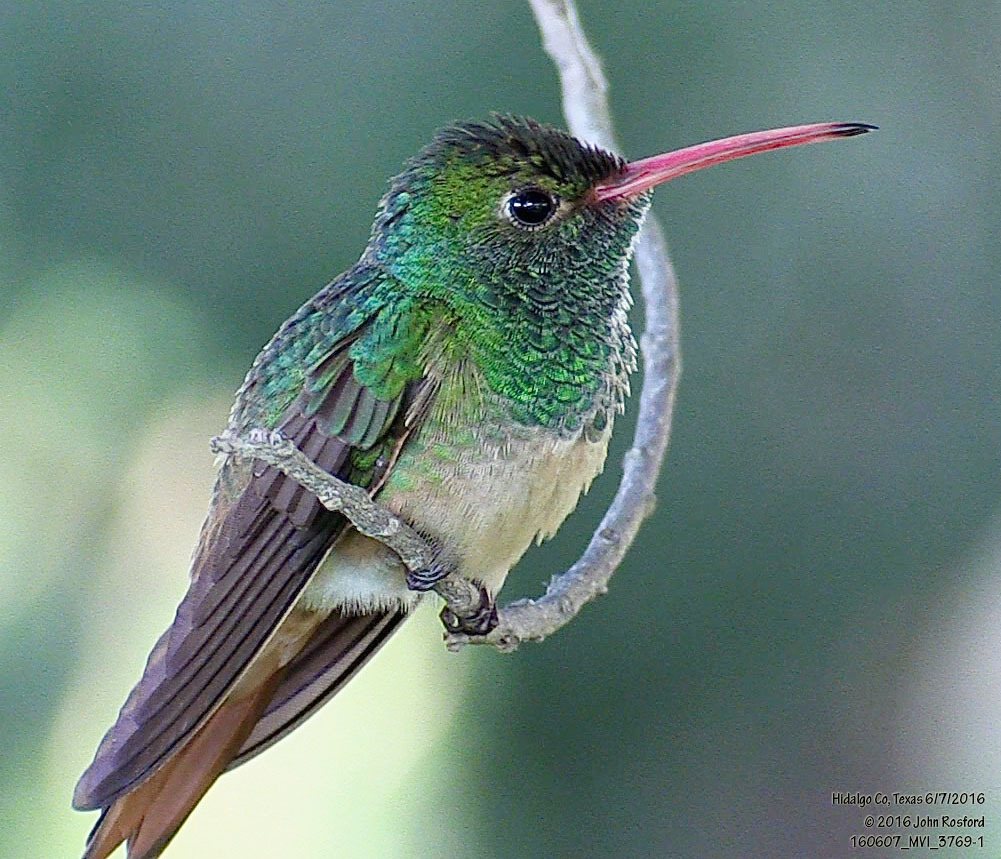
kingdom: Animalia
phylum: Chordata
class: Aves
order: Apodiformes
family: Trochilidae
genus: Amazilia
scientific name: Amazilia yucatanensis
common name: Buff-bellied hummingbird
